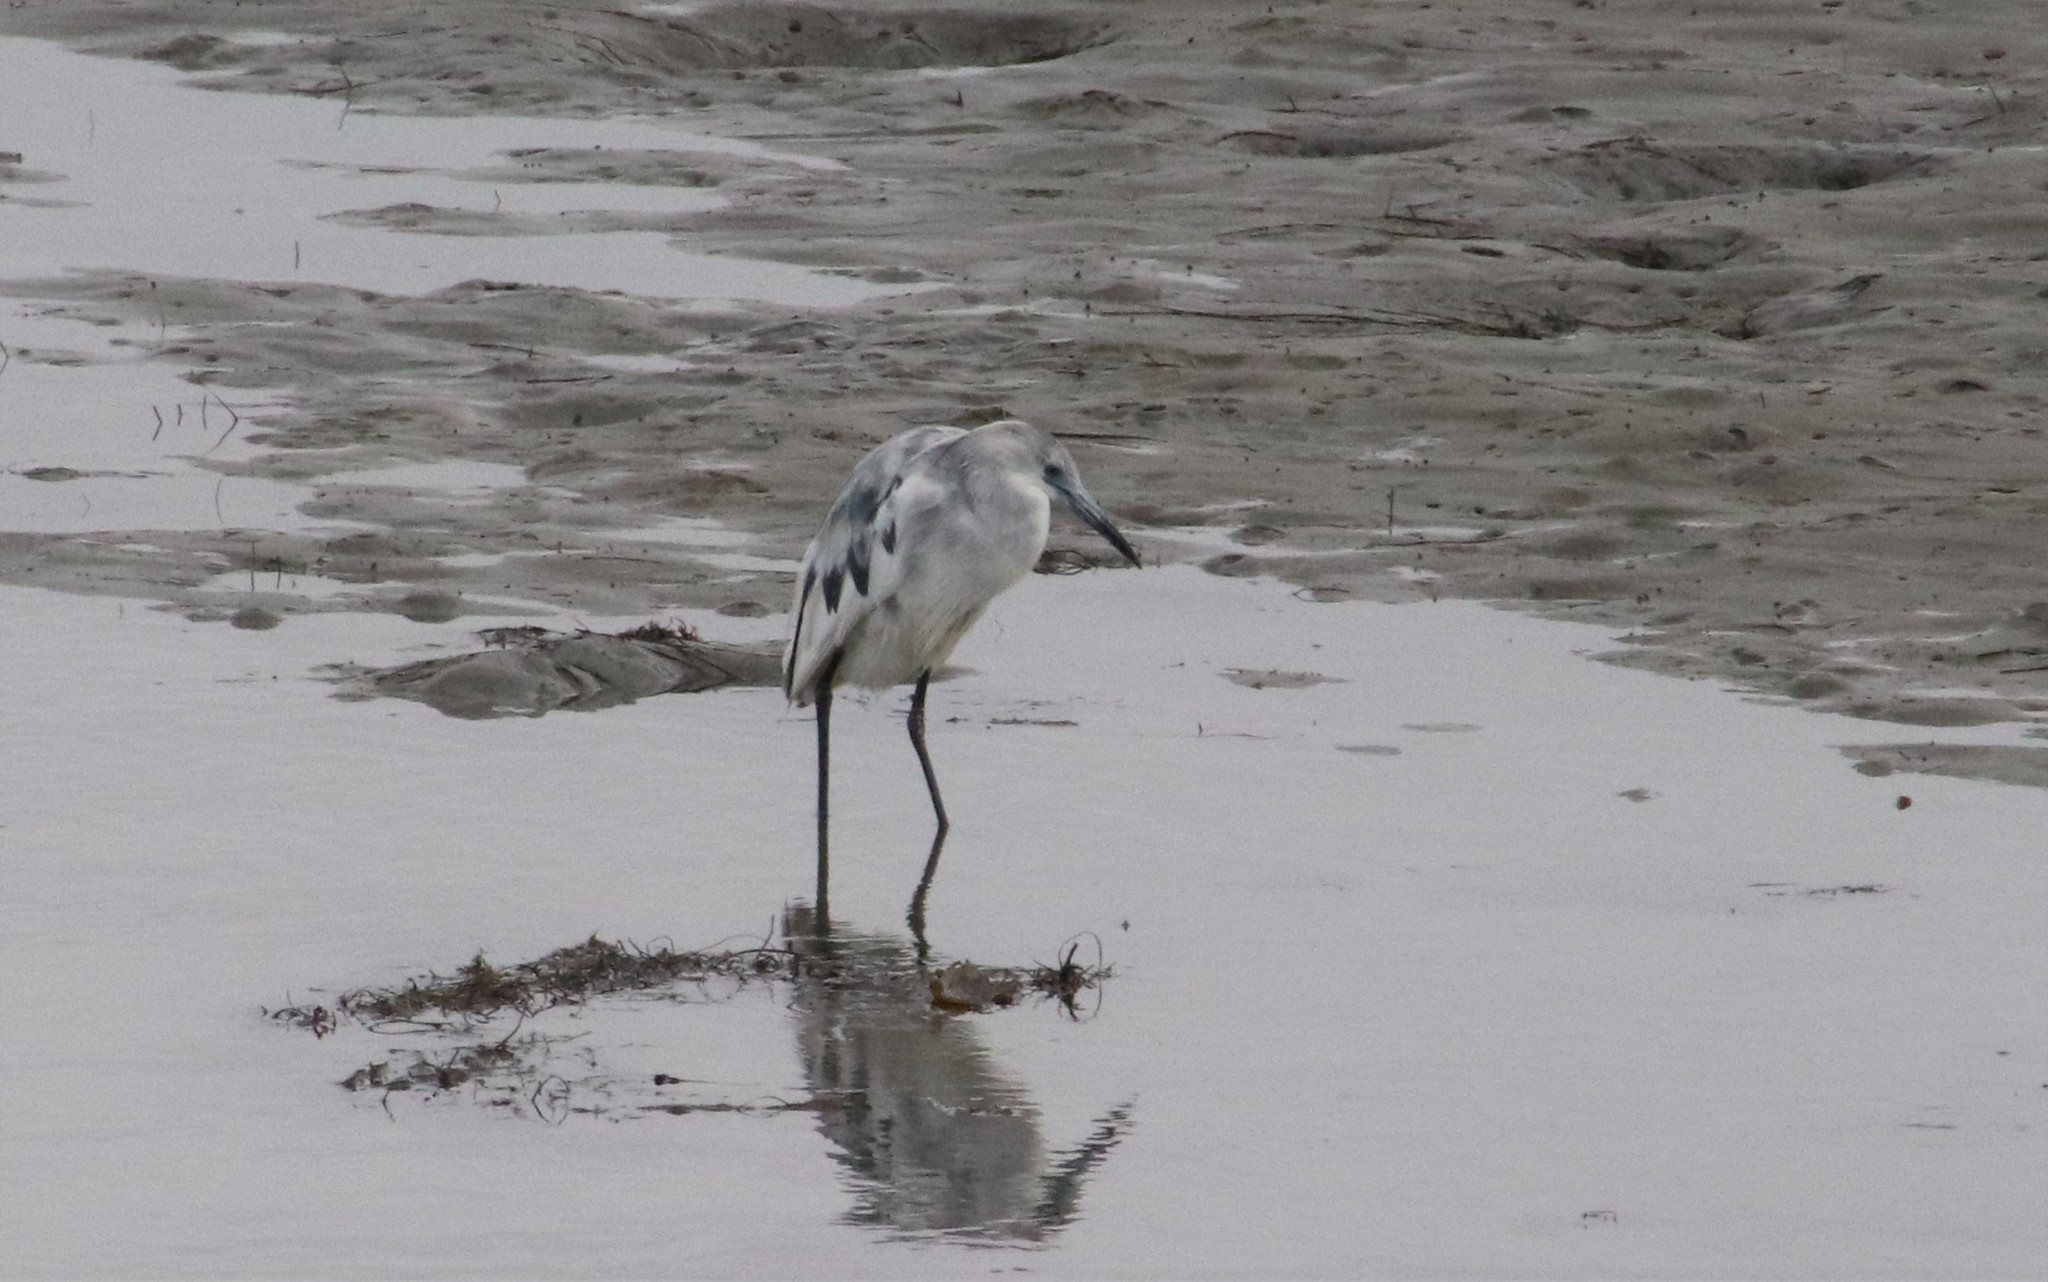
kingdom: Animalia
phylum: Chordata
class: Aves
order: Pelecaniformes
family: Ardeidae
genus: Egretta
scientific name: Egretta caerulea
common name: Little blue heron
